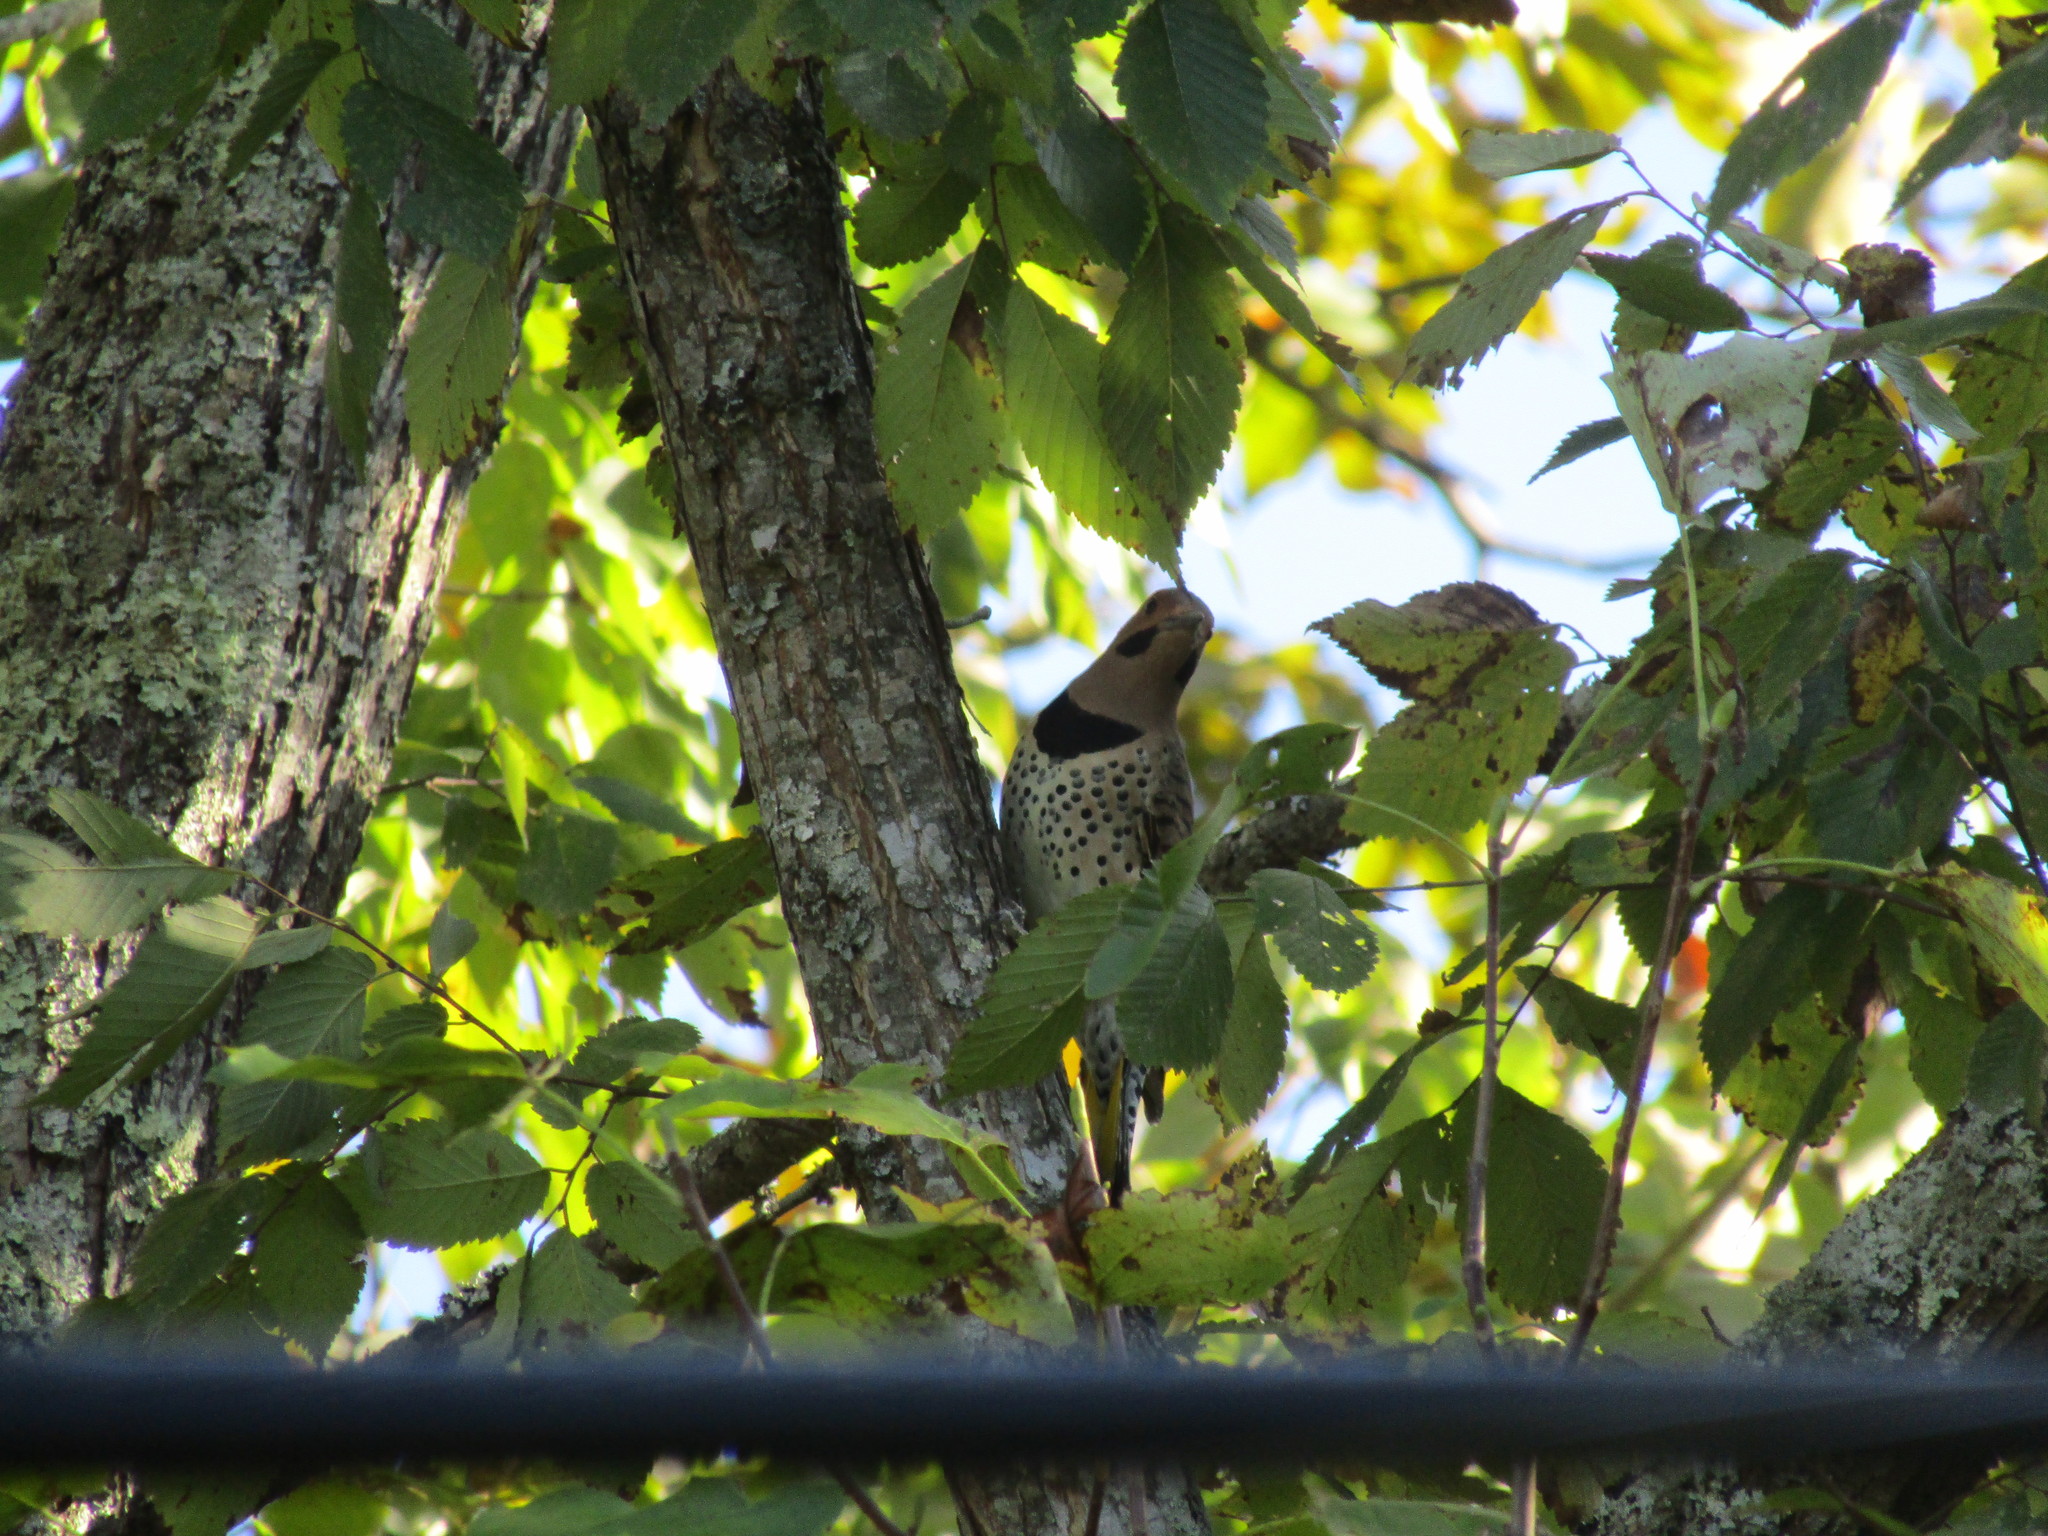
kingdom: Animalia
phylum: Chordata
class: Aves
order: Piciformes
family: Picidae
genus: Colaptes
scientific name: Colaptes auratus
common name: Northern flicker
